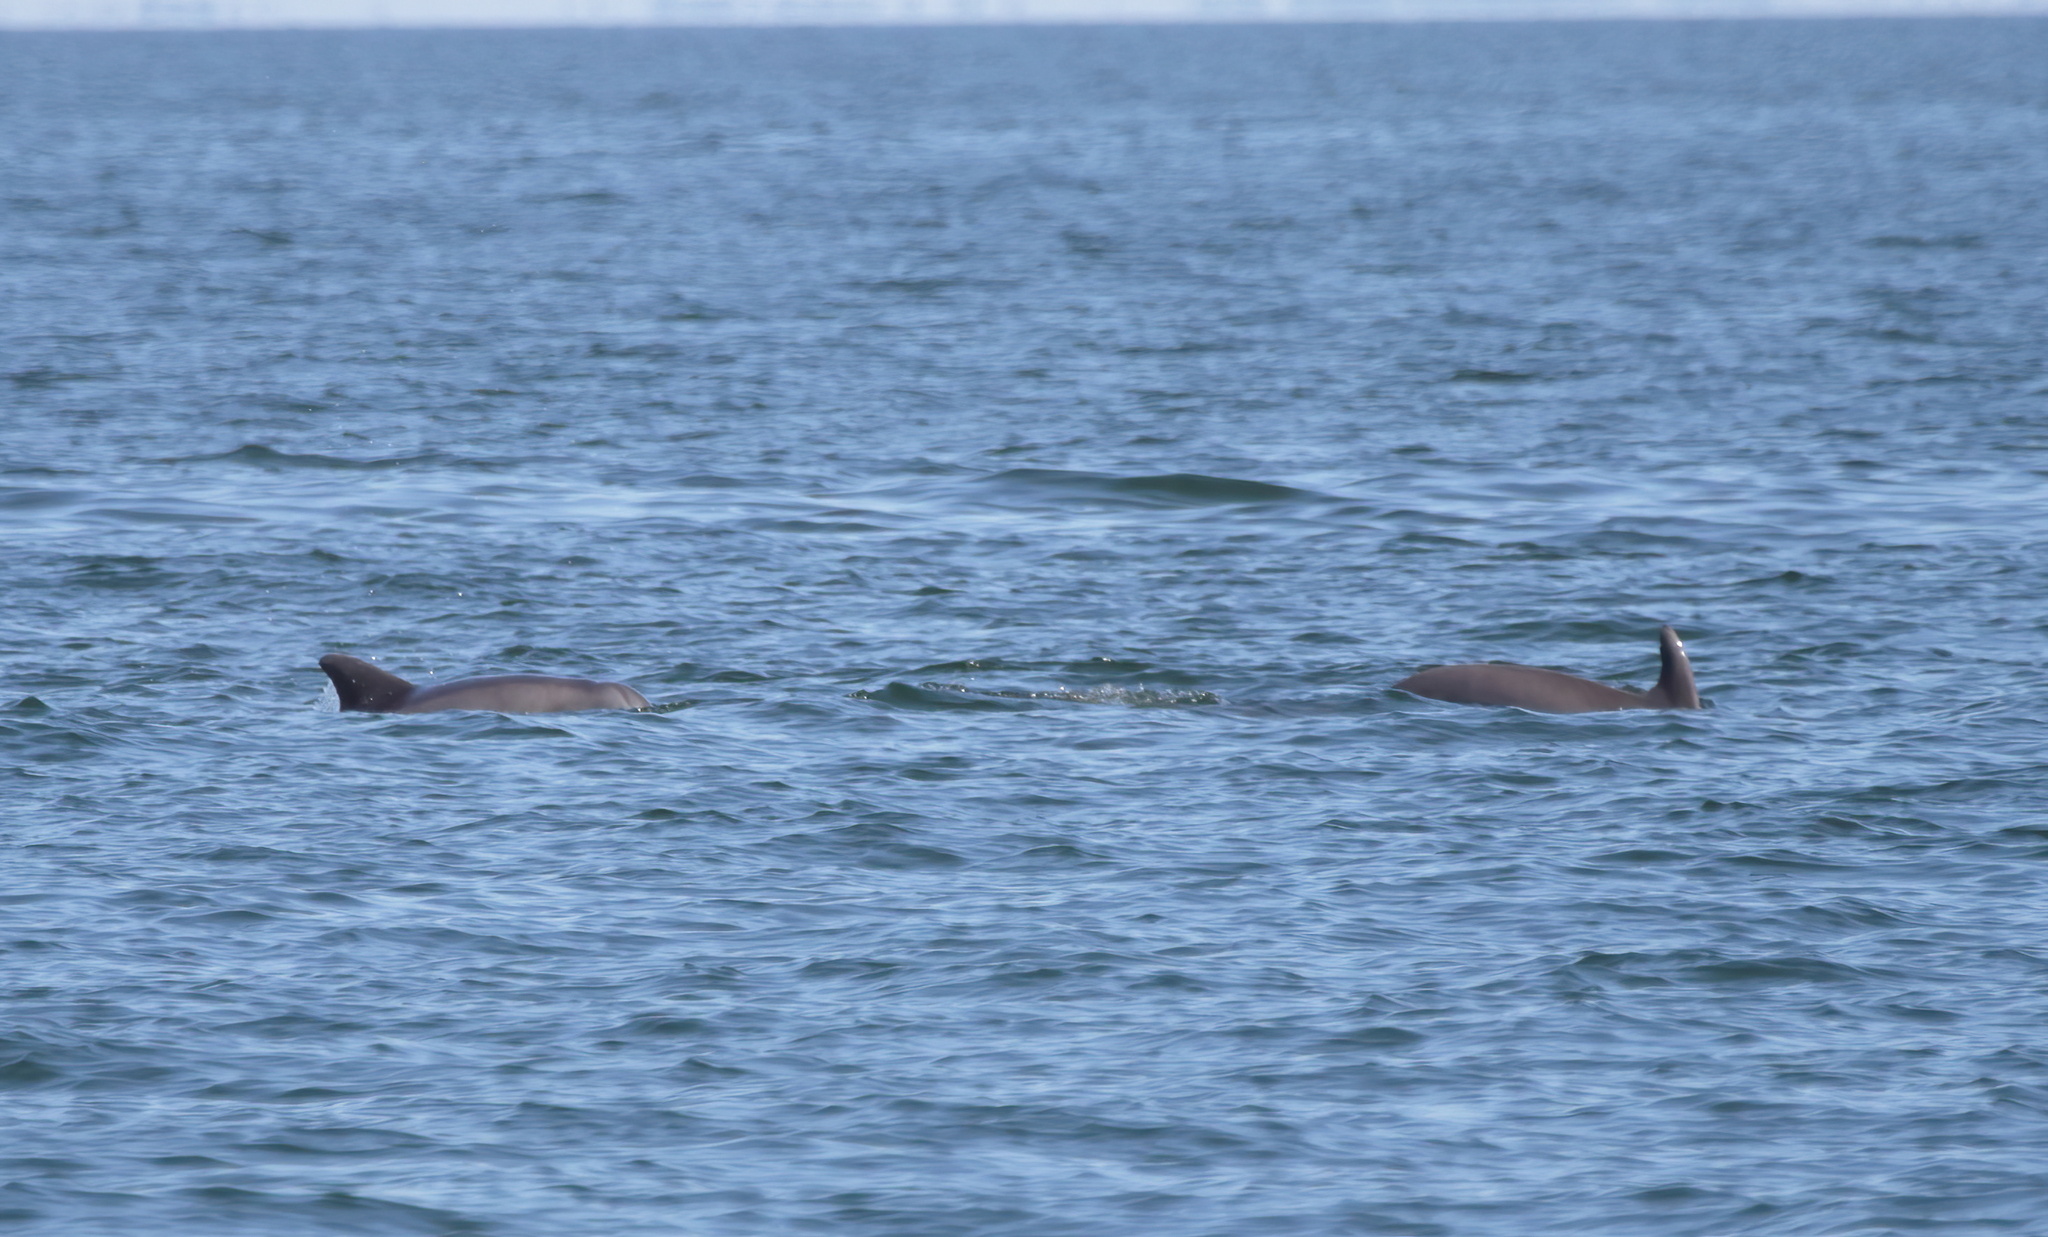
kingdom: Animalia
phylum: Chordata
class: Mammalia
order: Cetacea
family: Delphinidae
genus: Tursiops
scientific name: Tursiops truncatus
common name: Bottlenose dolphin
